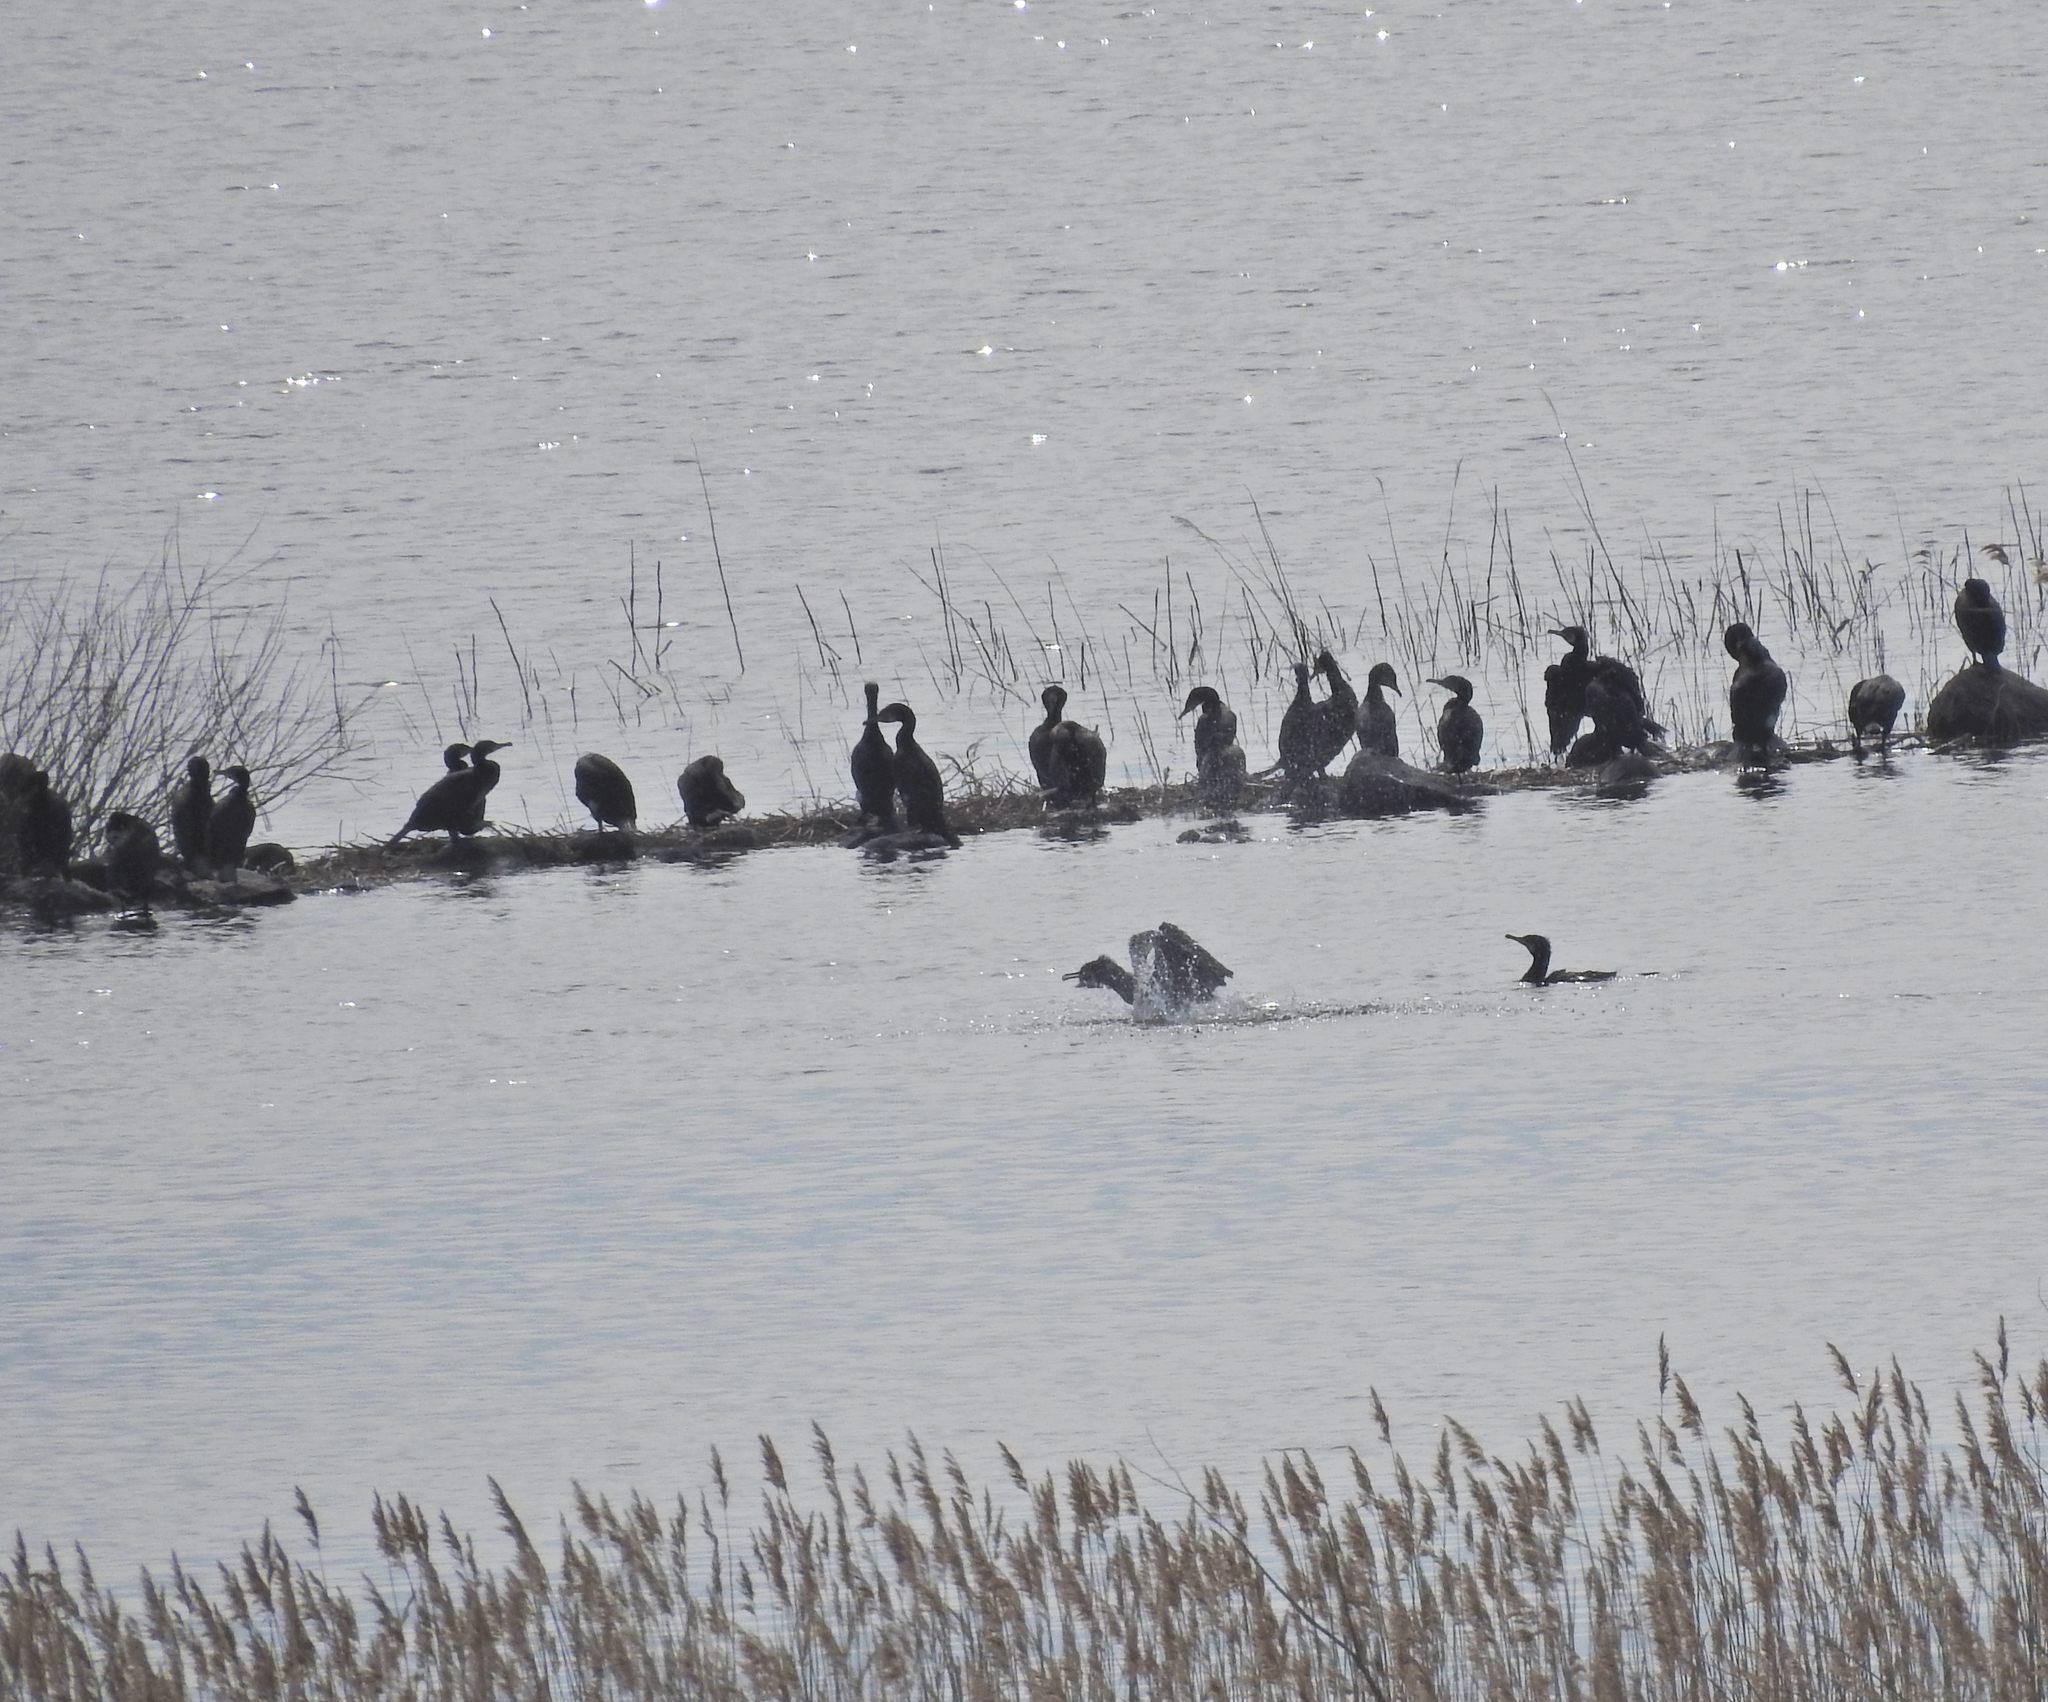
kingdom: Animalia
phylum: Chordata
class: Aves
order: Suliformes
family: Phalacrocoracidae
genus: Phalacrocorax
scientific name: Phalacrocorax carbo
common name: Great cormorant
